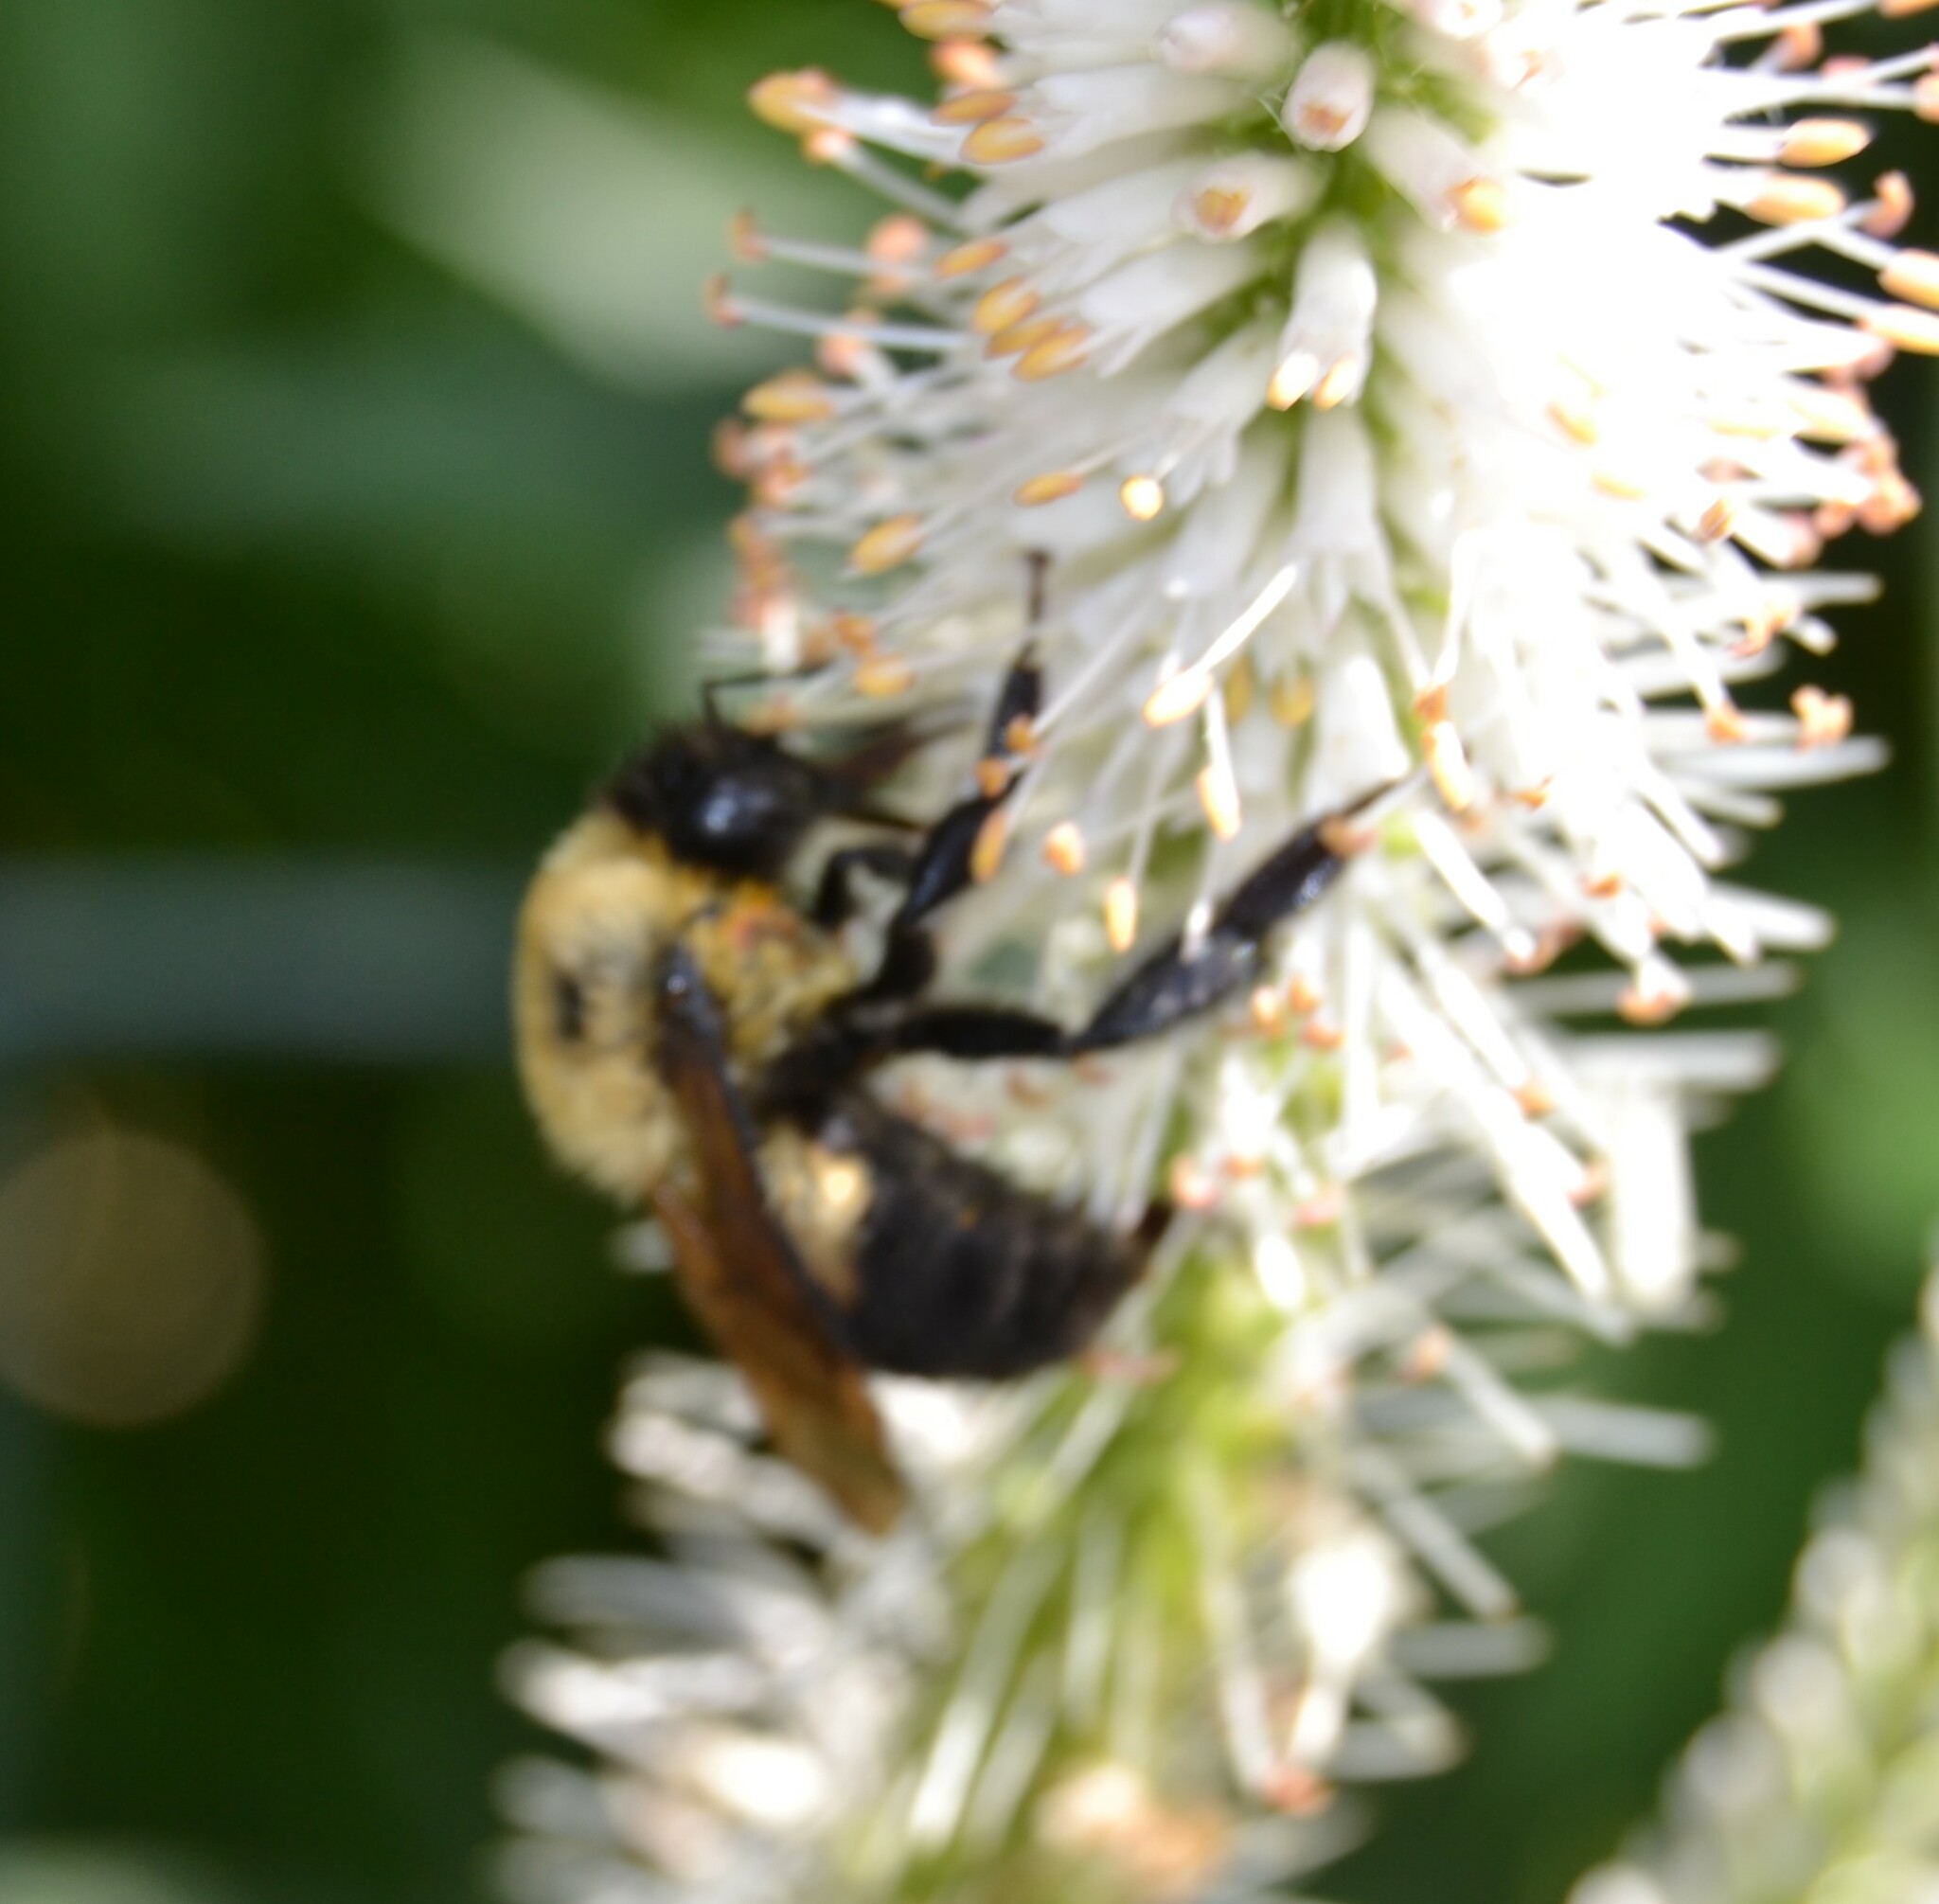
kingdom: Animalia
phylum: Arthropoda
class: Insecta
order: Hymenoptera
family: Apidae
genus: Bombus
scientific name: Bombus griseocollis
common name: Brown-belted bumble bee
